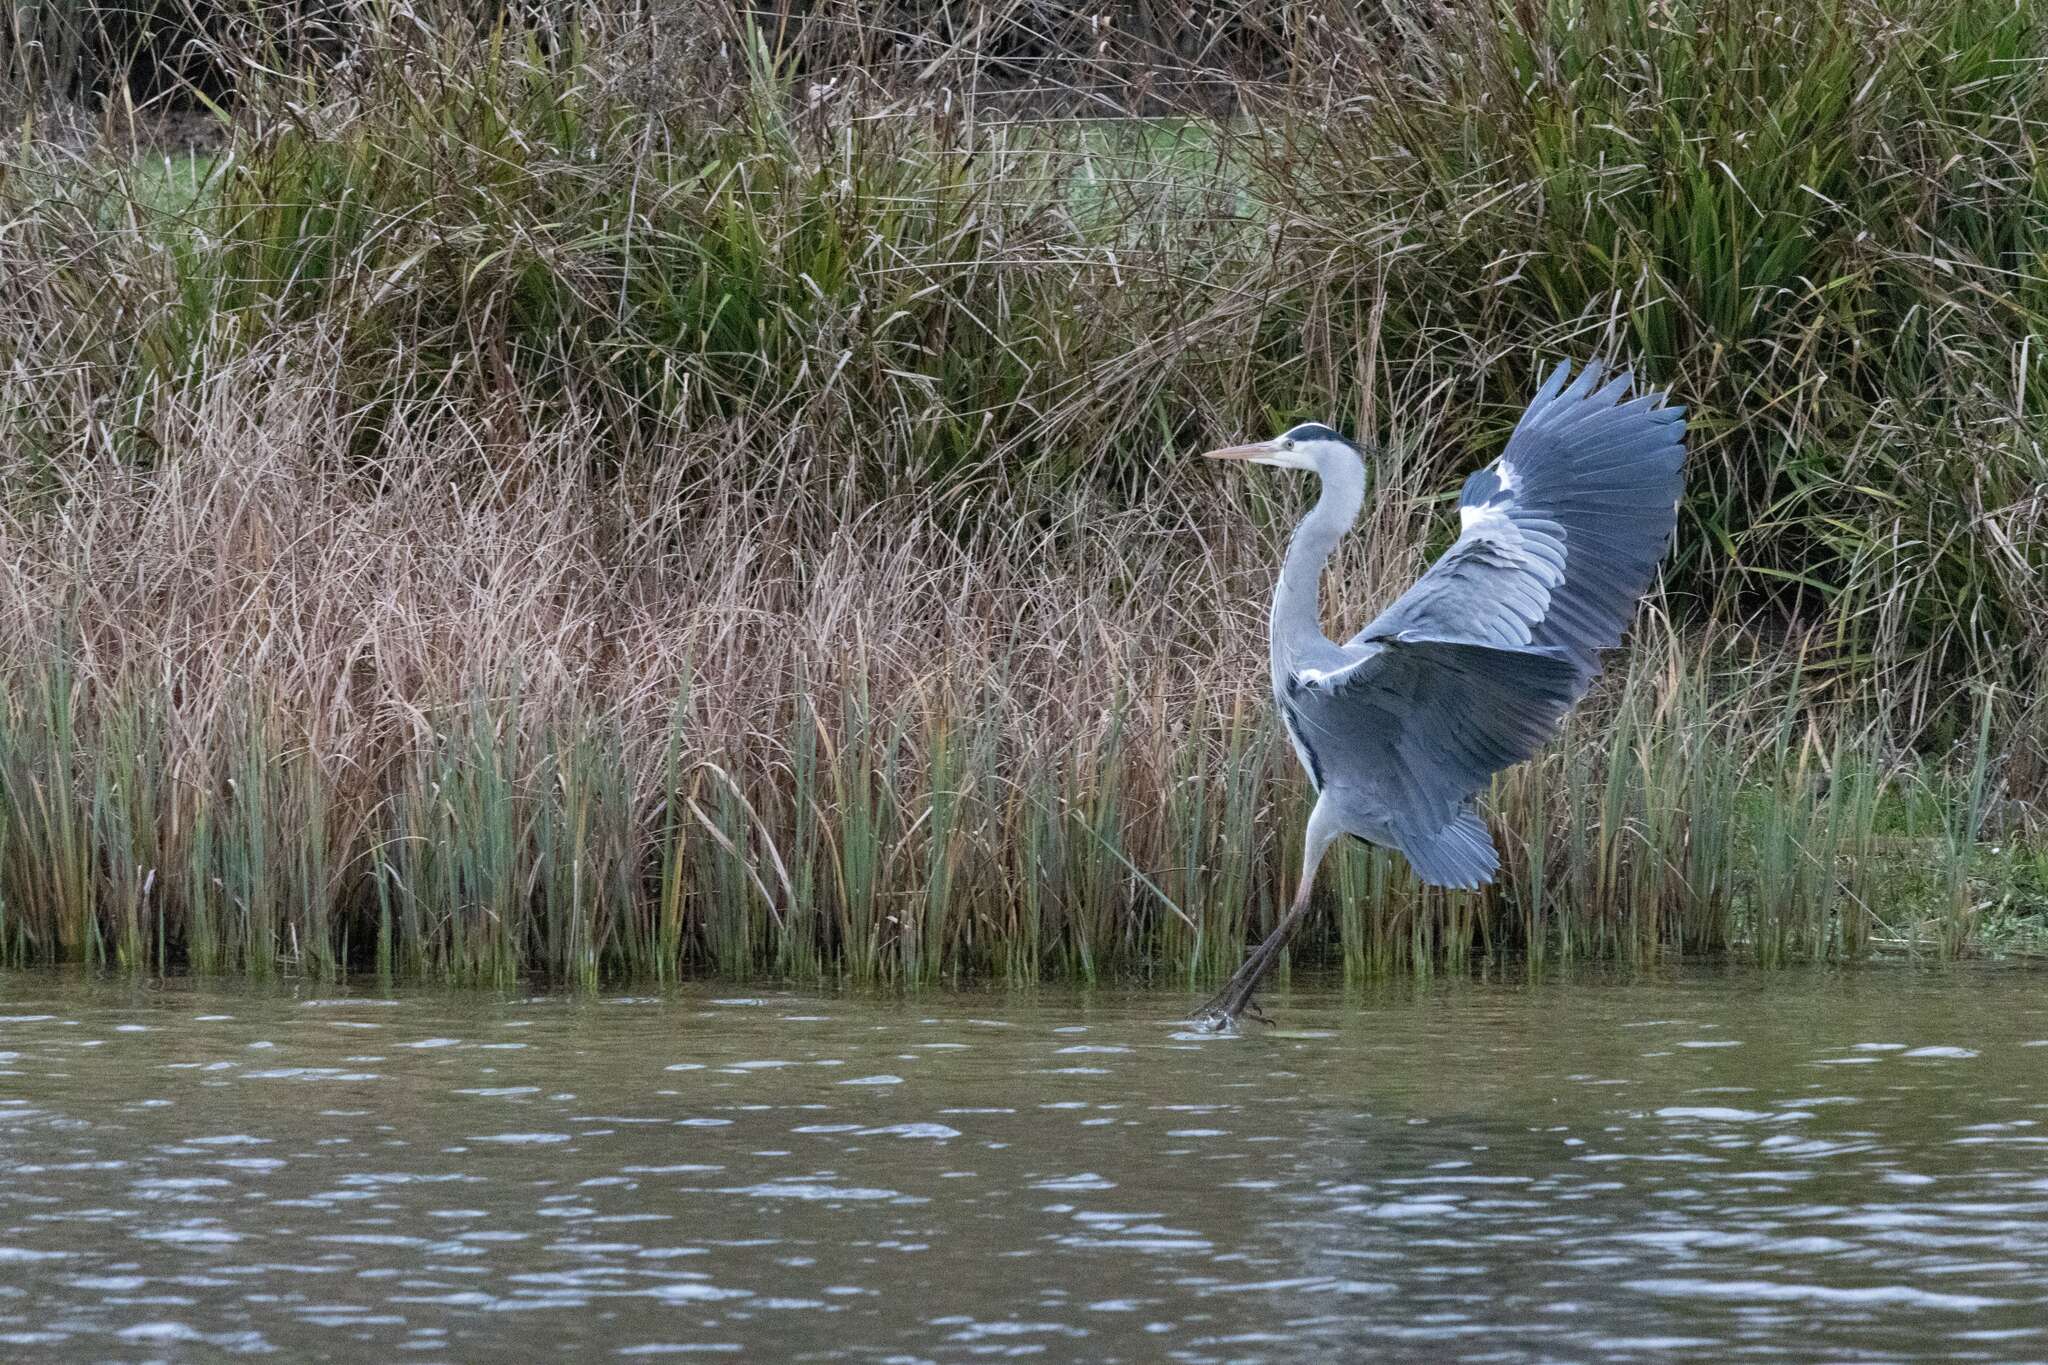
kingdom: Animalia
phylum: Chordata
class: Aves
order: Pelecaniformes
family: Ardeidae
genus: Ardea
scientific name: Ardea cinerea
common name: Grey heron
